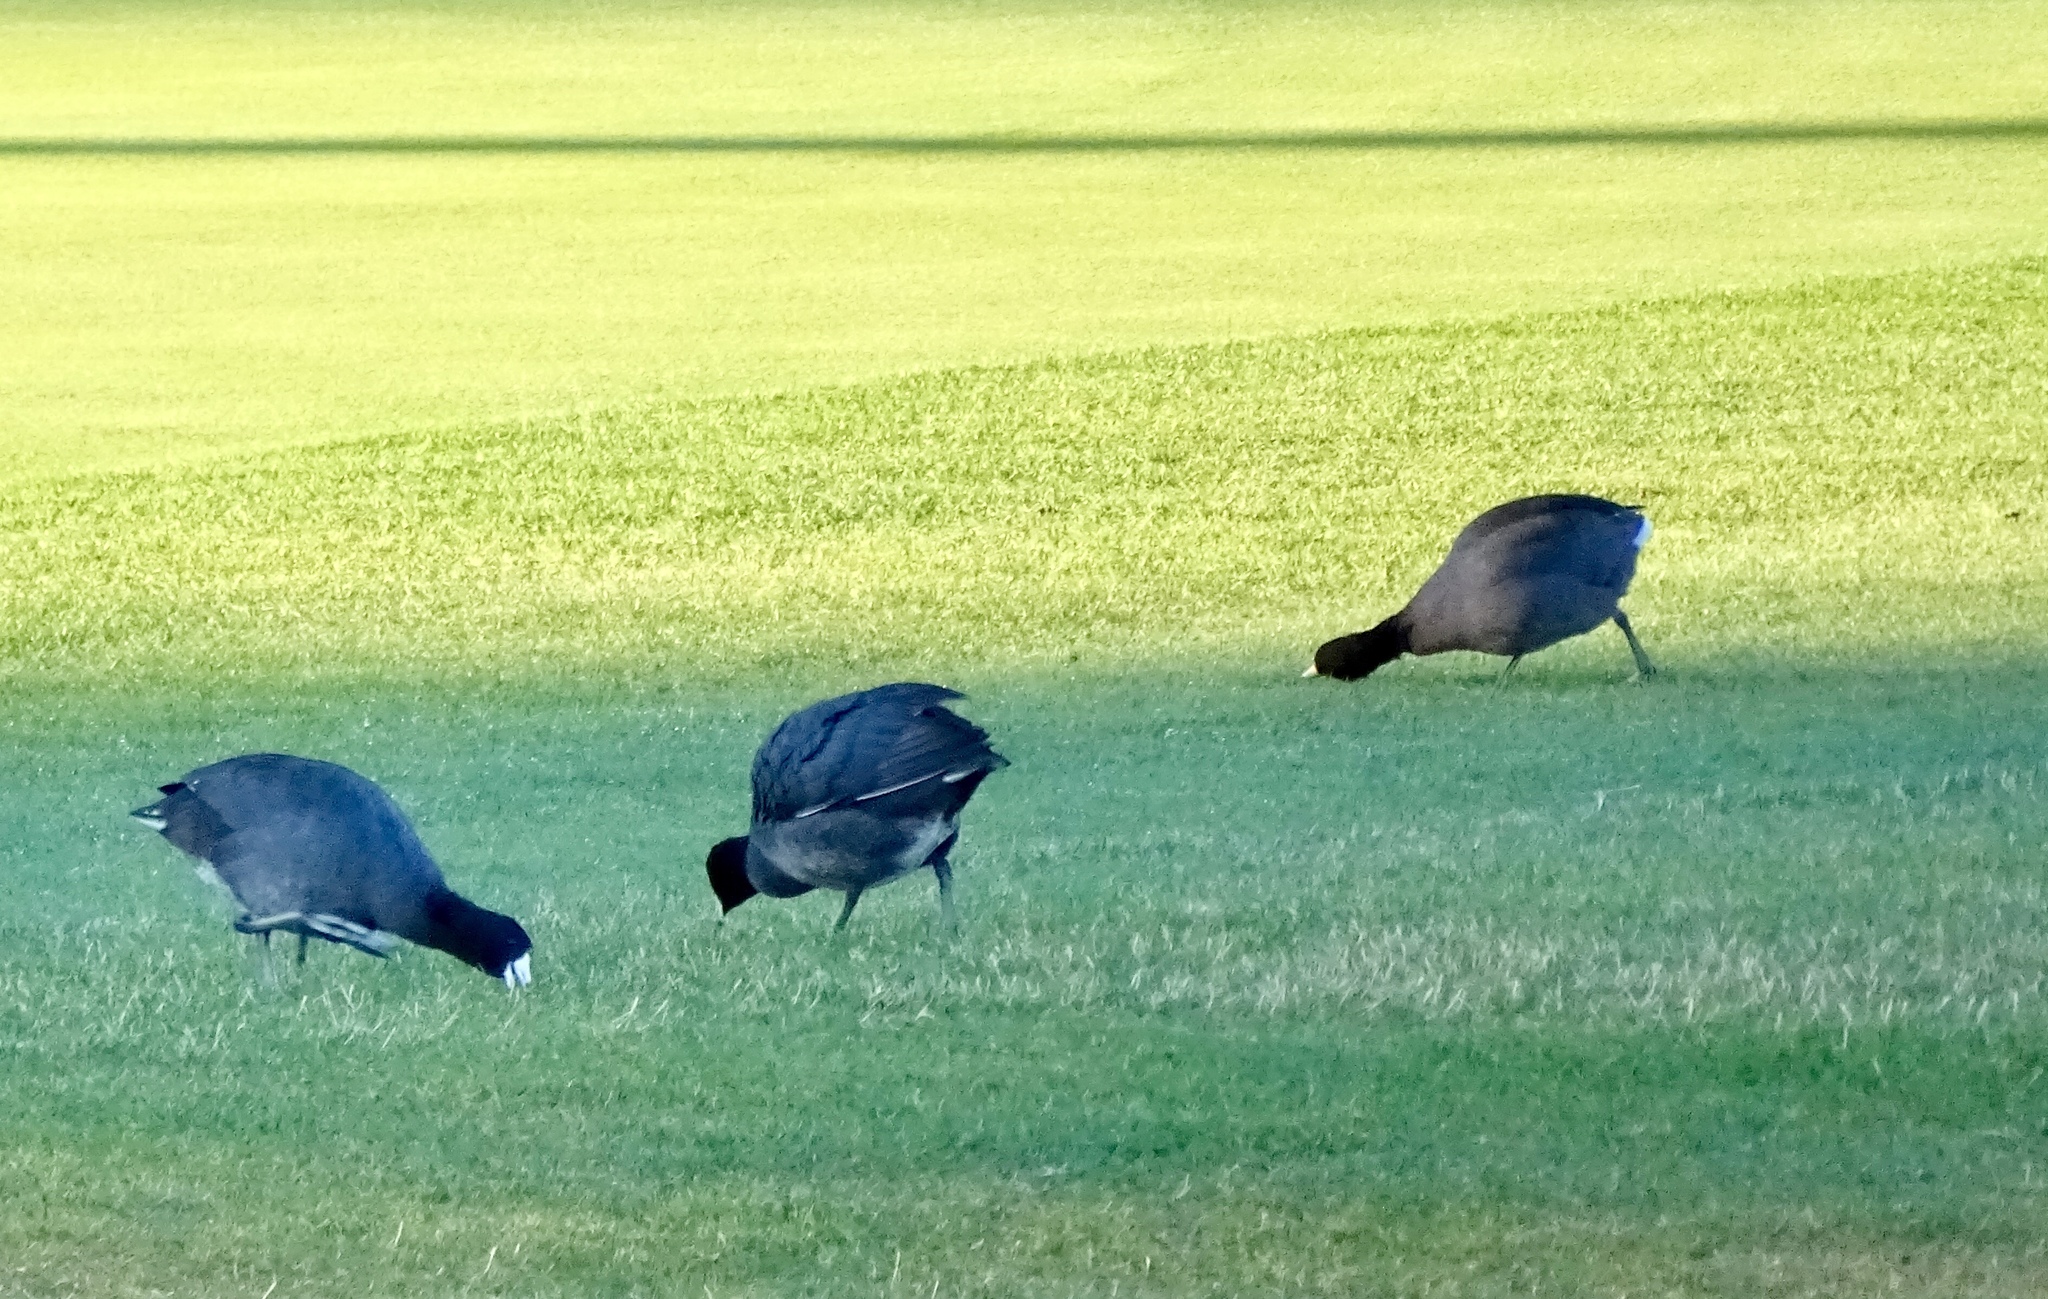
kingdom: Animalia
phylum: Chordata
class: Aves
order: Gruiformes
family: Rallidae
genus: Fulica
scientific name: Fulica americana
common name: American coot
